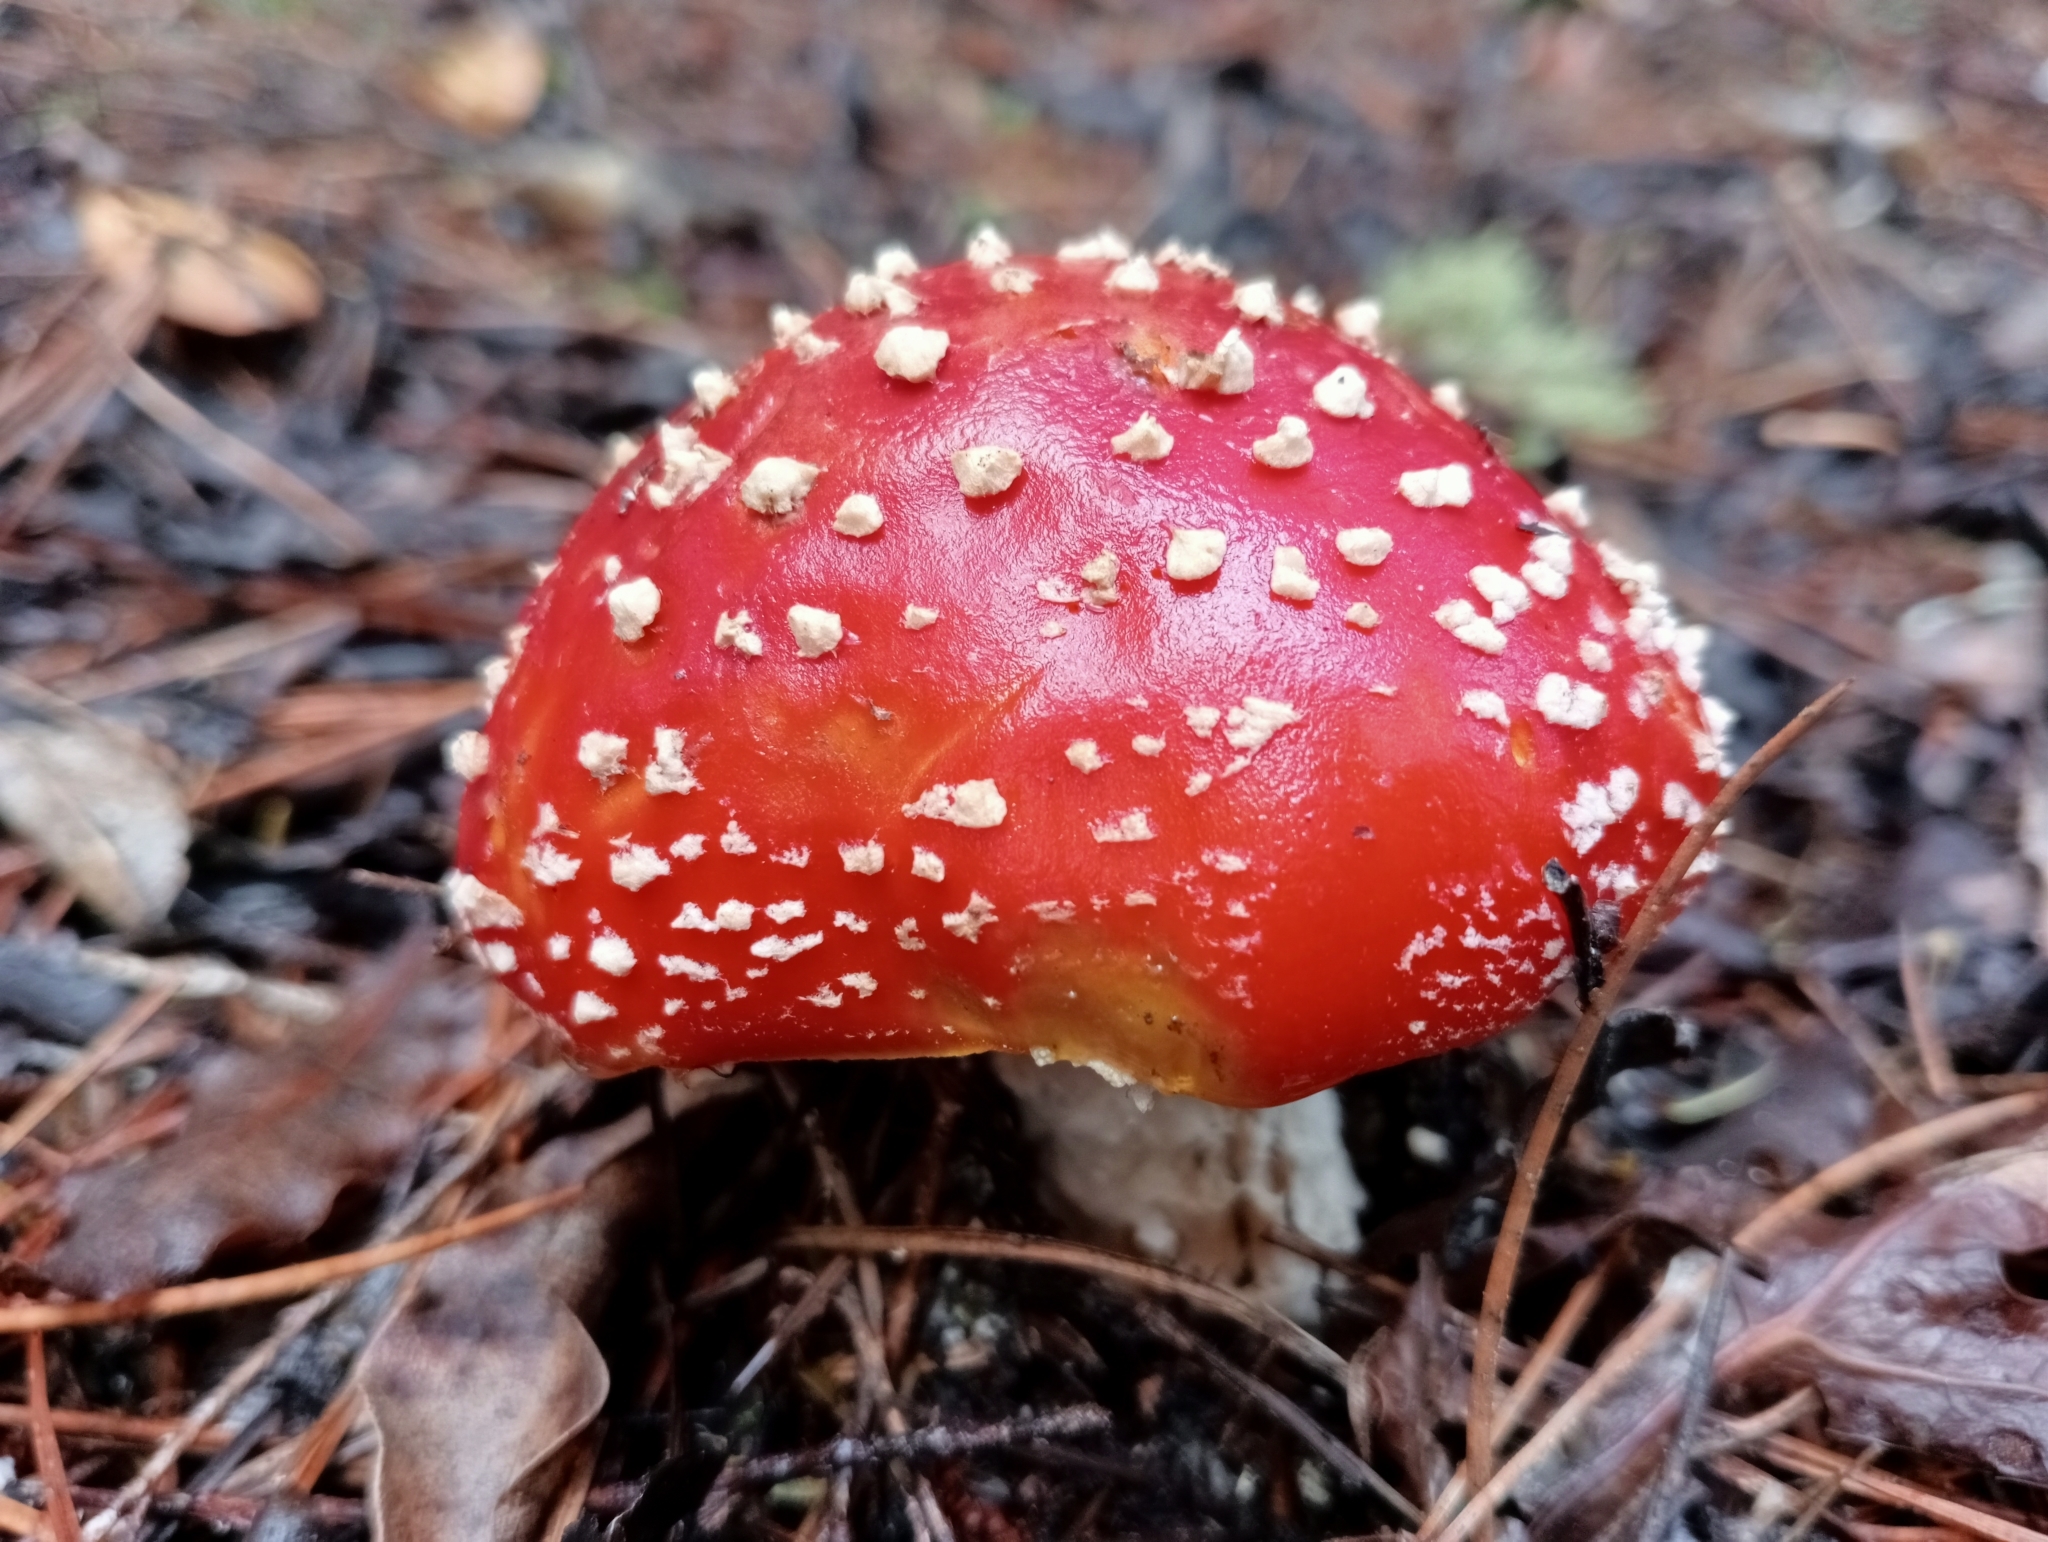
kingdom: Fungi
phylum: Basidiomycota
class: Agaricomycetes
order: Agaricales
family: Amanitaceae
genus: Amanita
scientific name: Amanita muscaria
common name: Fly agaric
